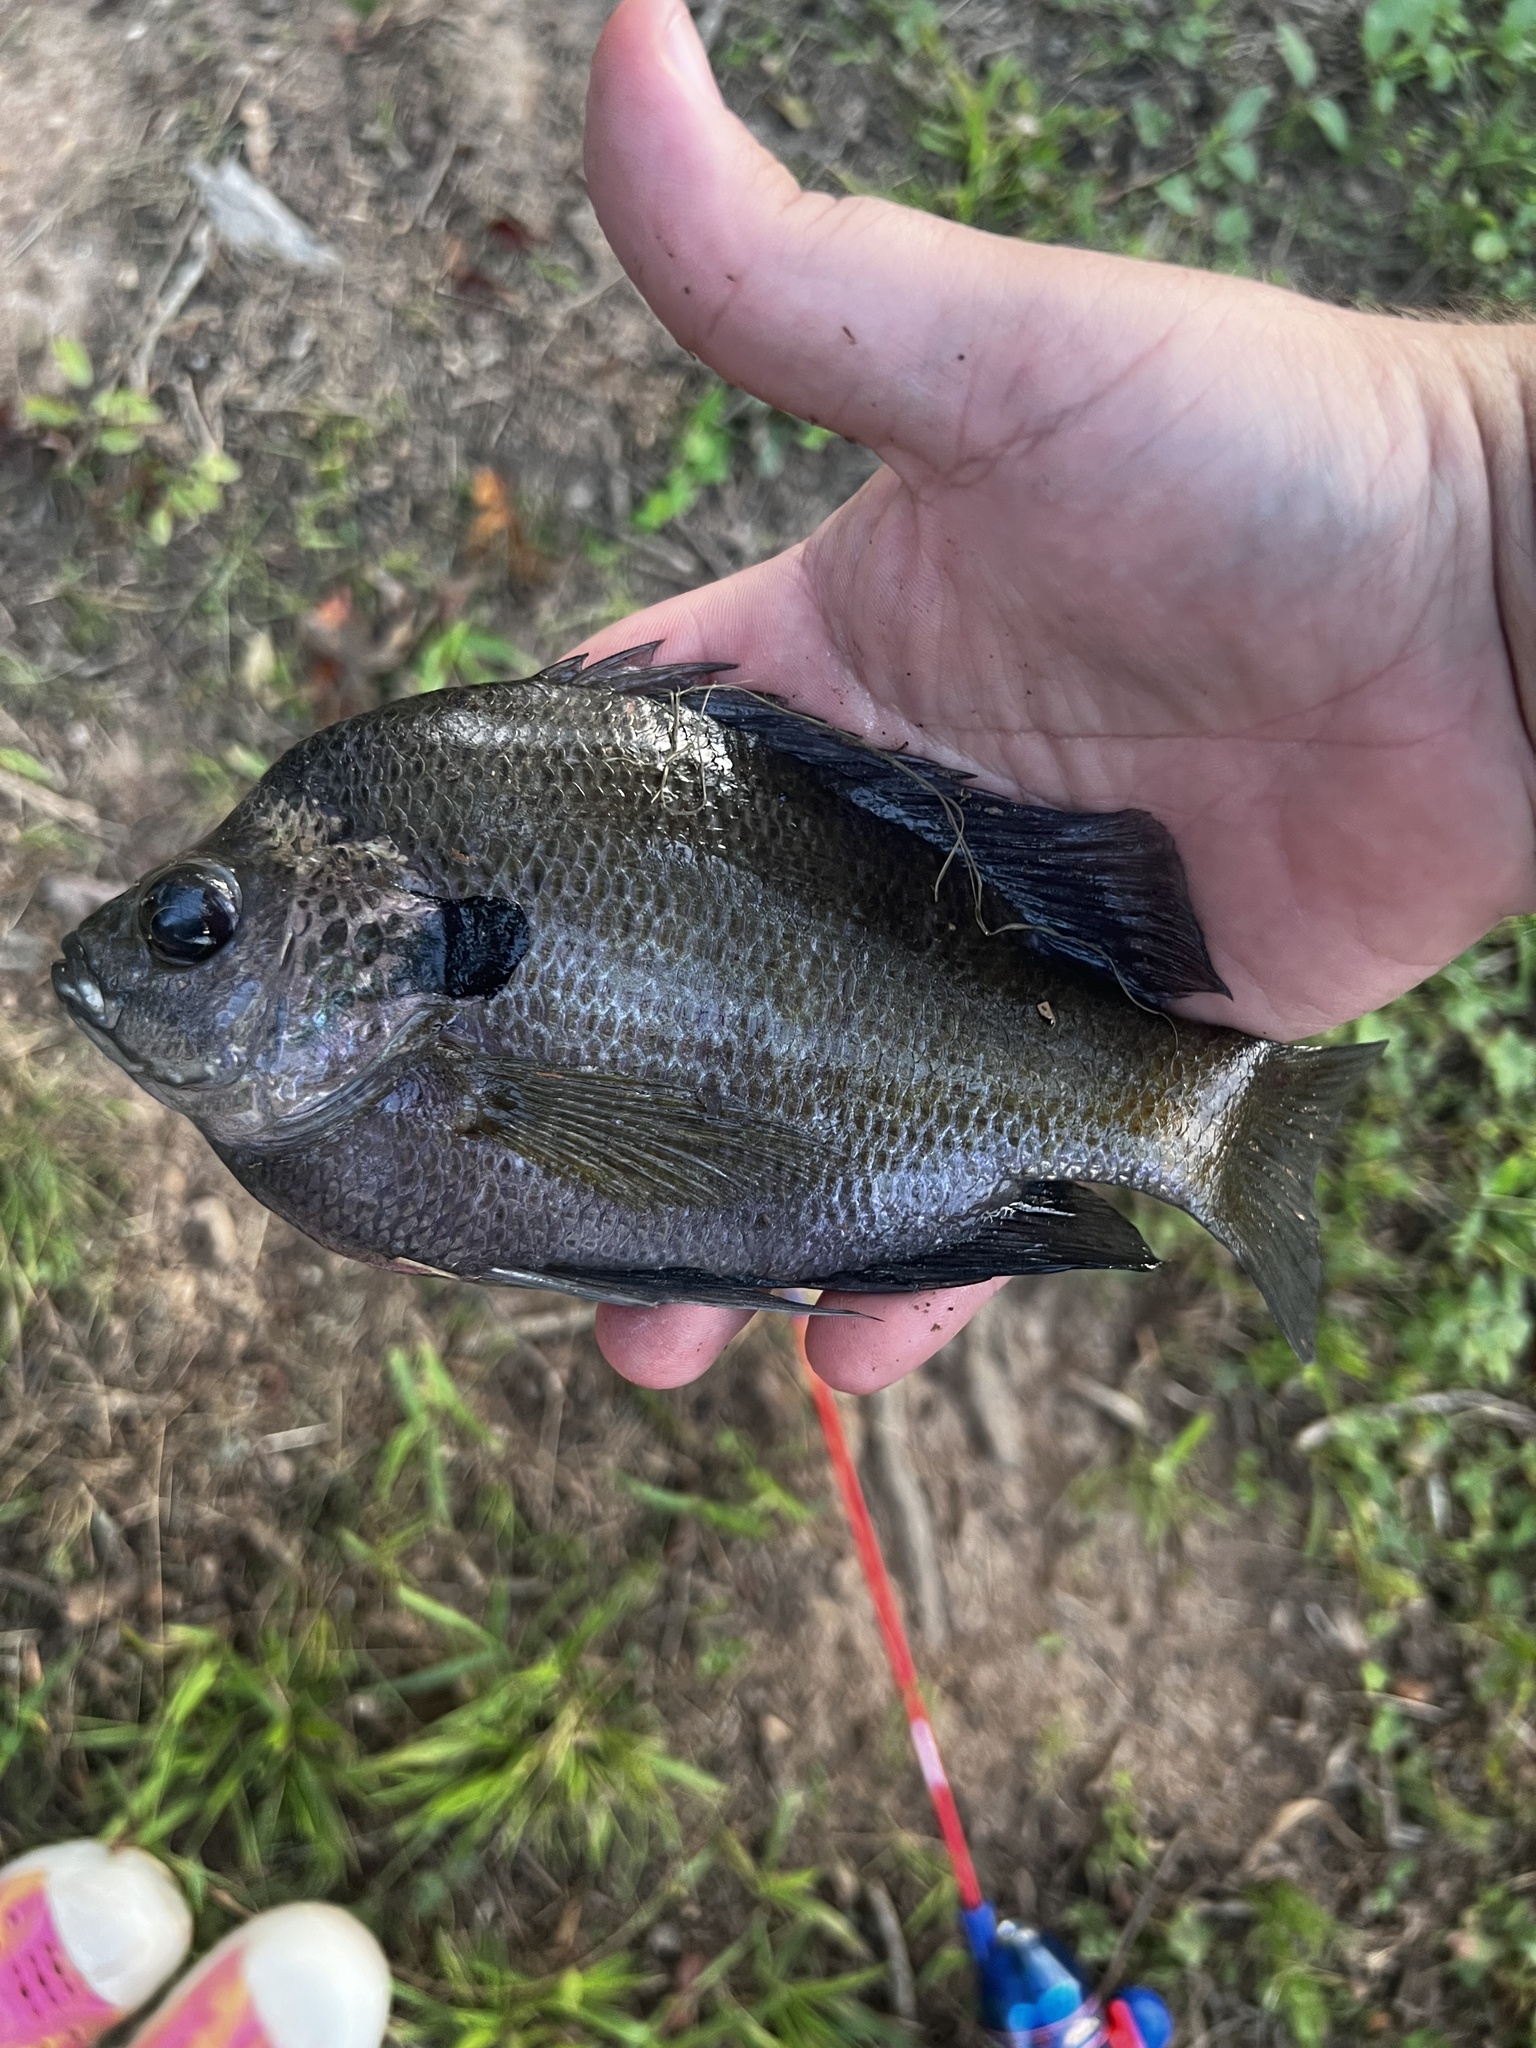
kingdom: Animalia
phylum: Chordata
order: Perciformes
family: Centrarchidae
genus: Lepomis
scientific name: Lepomis macrochirus
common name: Bluegill
